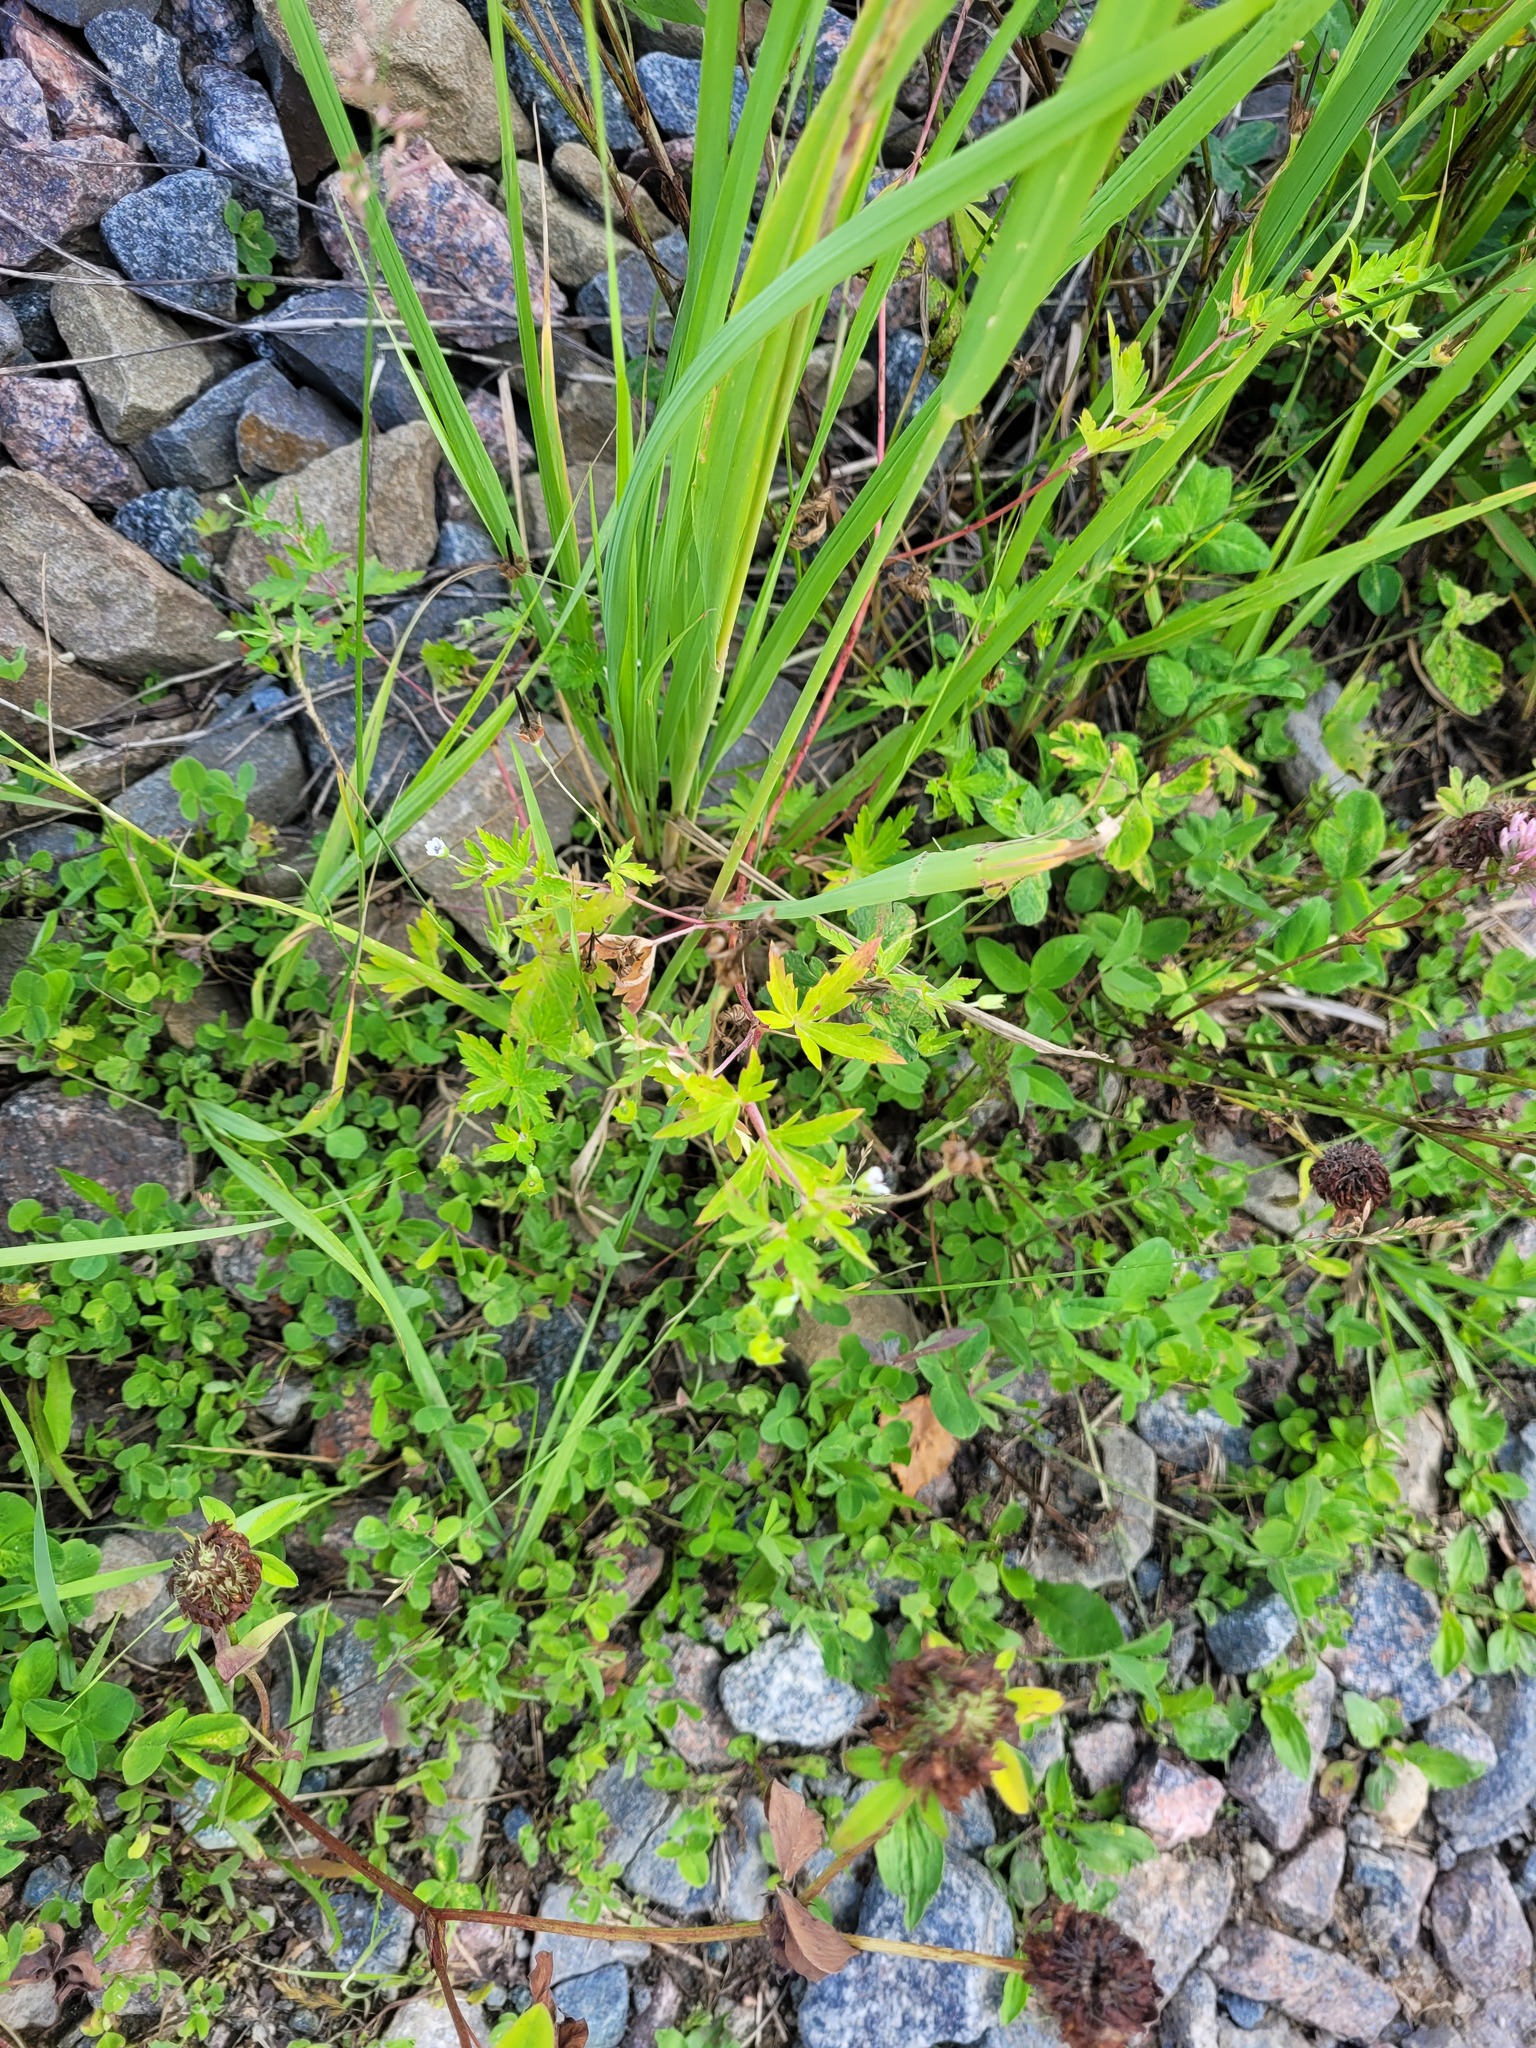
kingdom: Plantae
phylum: Tracheophyta
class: Magnoliopsida
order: Geraniales
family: Geraniaceae
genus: Geranium
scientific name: Geranium sibiricum
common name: Siberian crane's-bill
